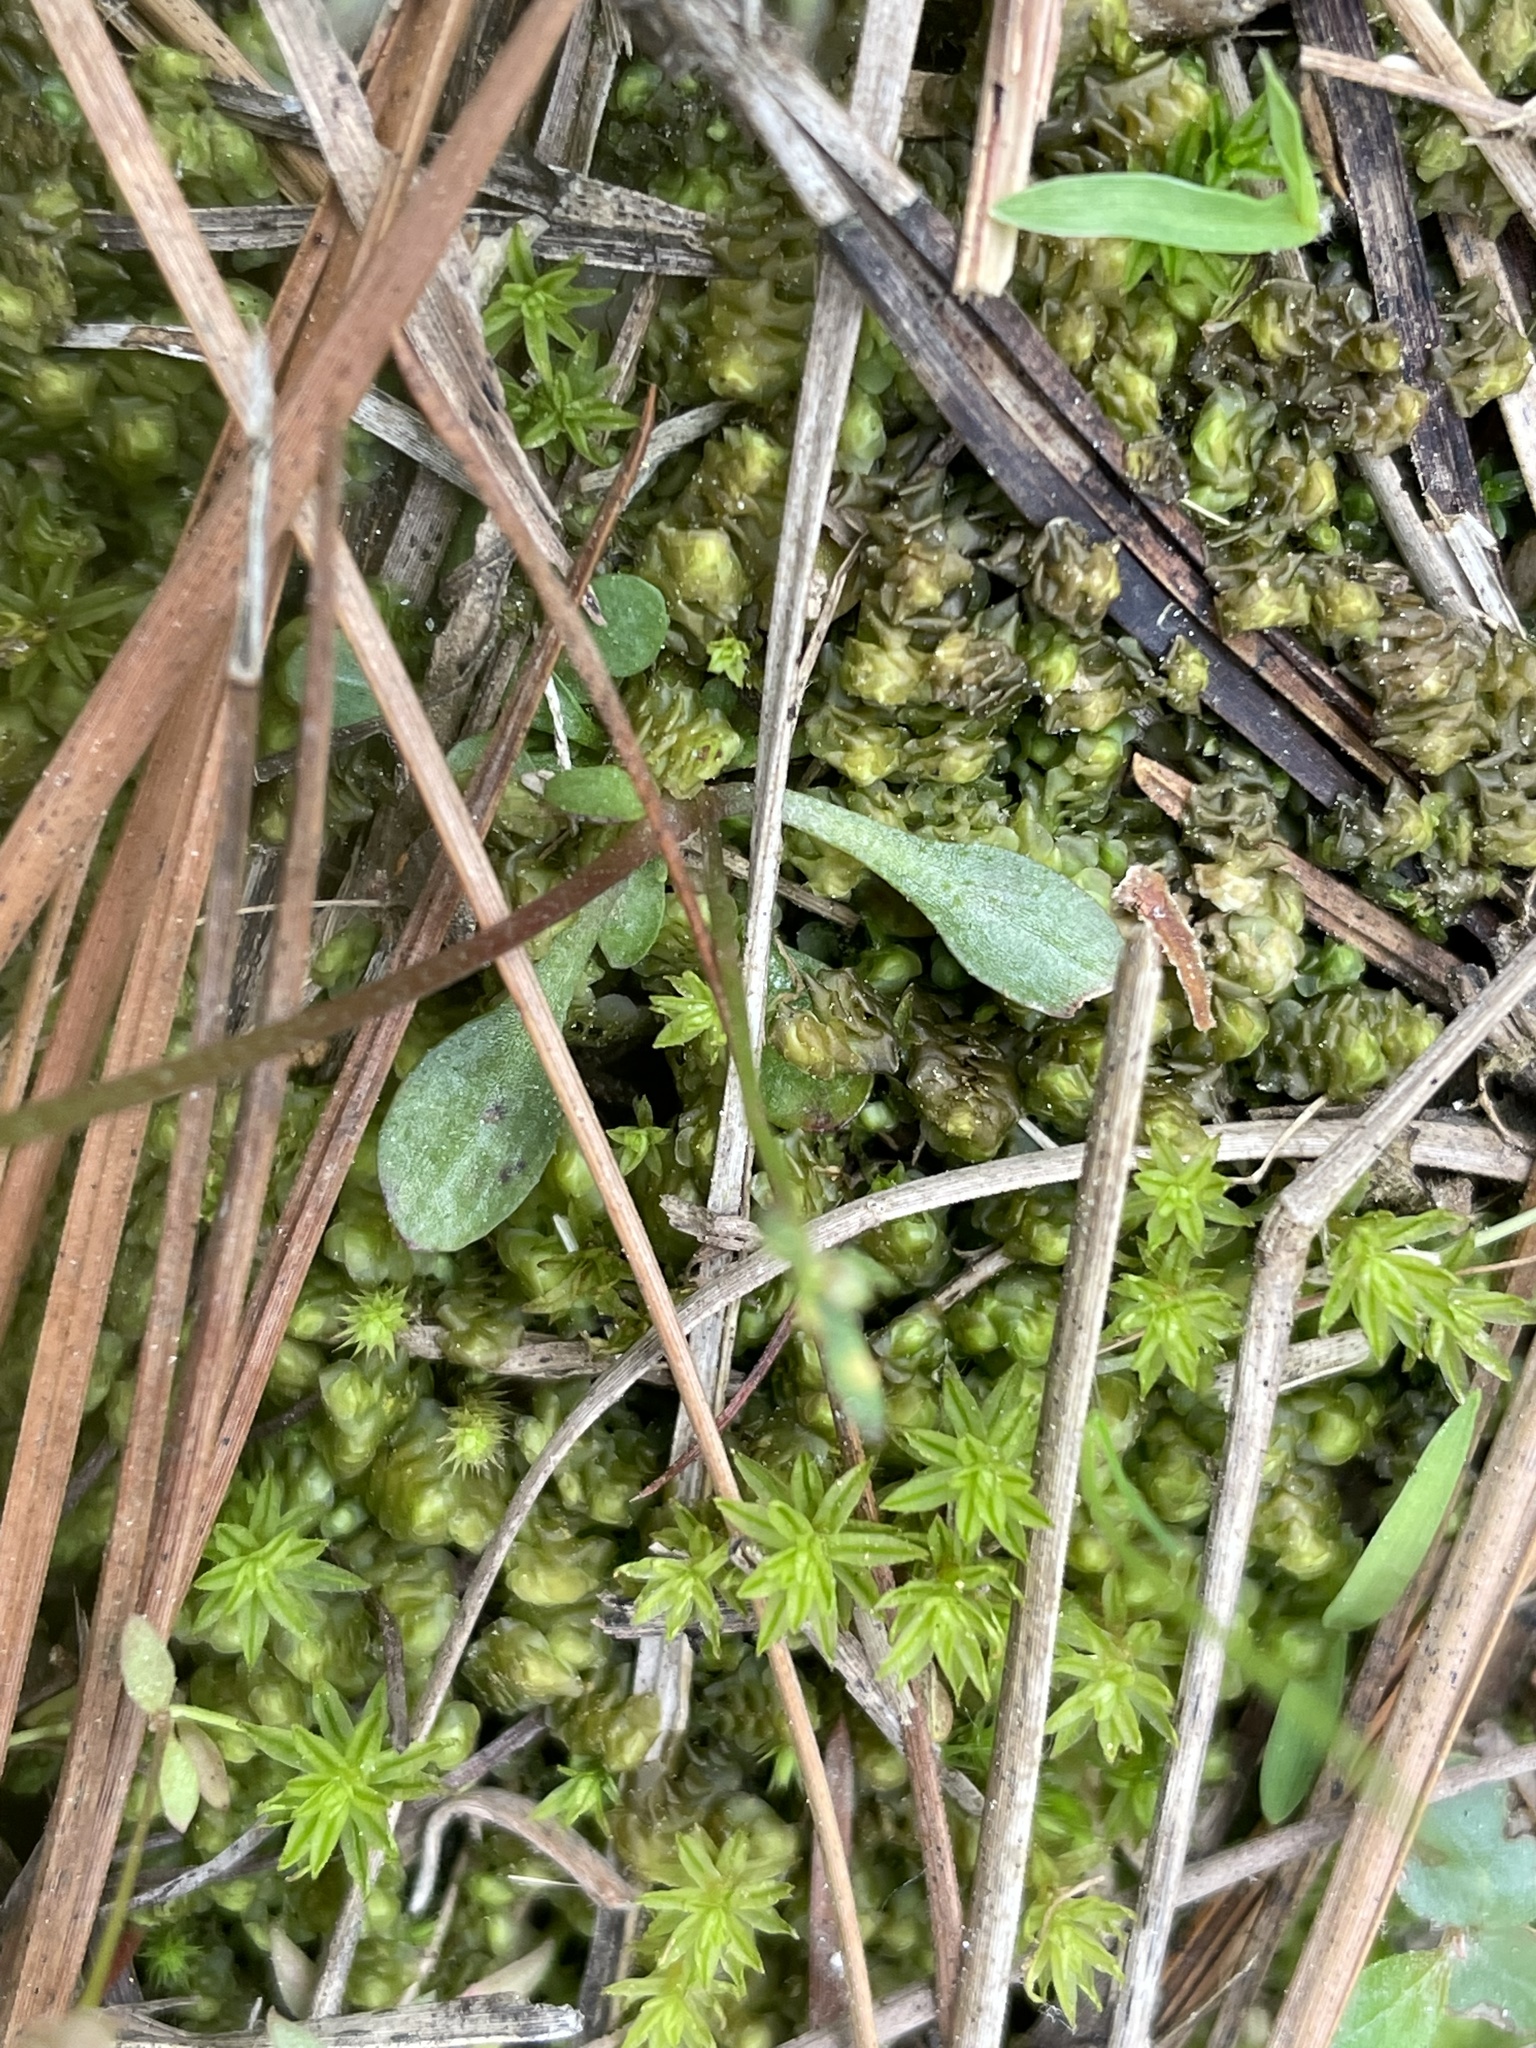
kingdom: Plantae
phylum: Tracheophyta
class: Magnoliopsida
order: Gentianales
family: Rubiaceae
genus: Houstonia
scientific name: Houstonia caerulea
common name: Bluets
